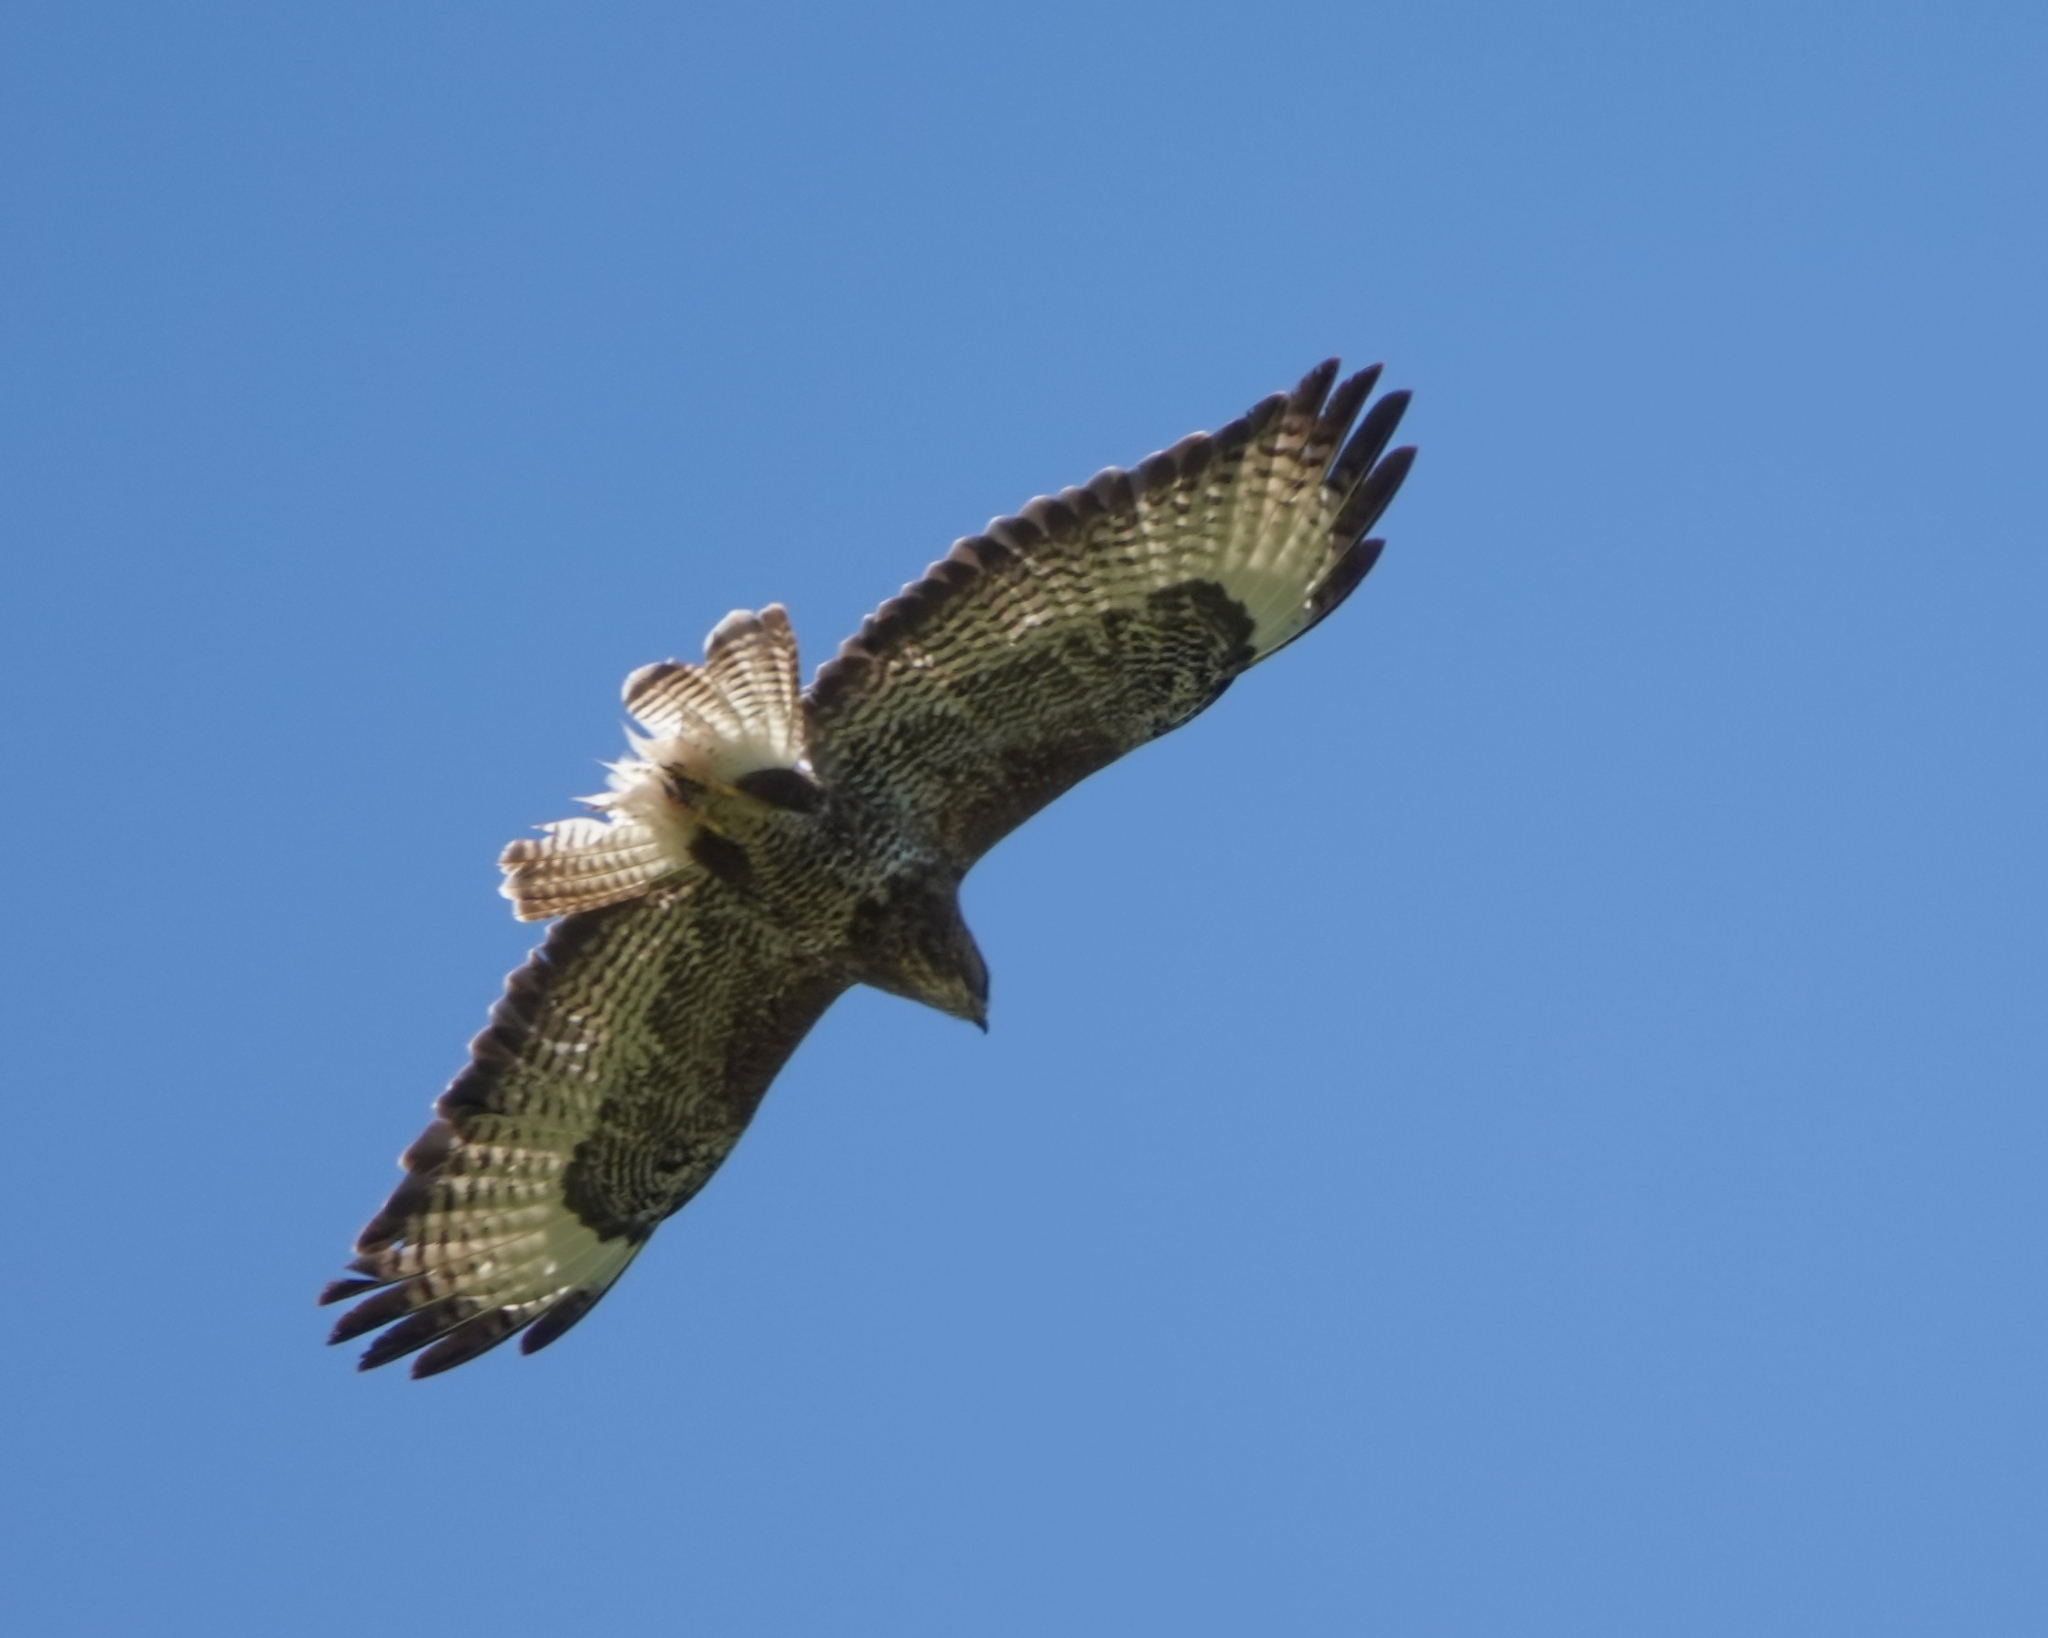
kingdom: Animalia
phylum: Chordata
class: Aves
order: Accipitriformes
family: Accipitridae
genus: Buteo
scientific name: Buteo buteo
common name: Common buzzard
